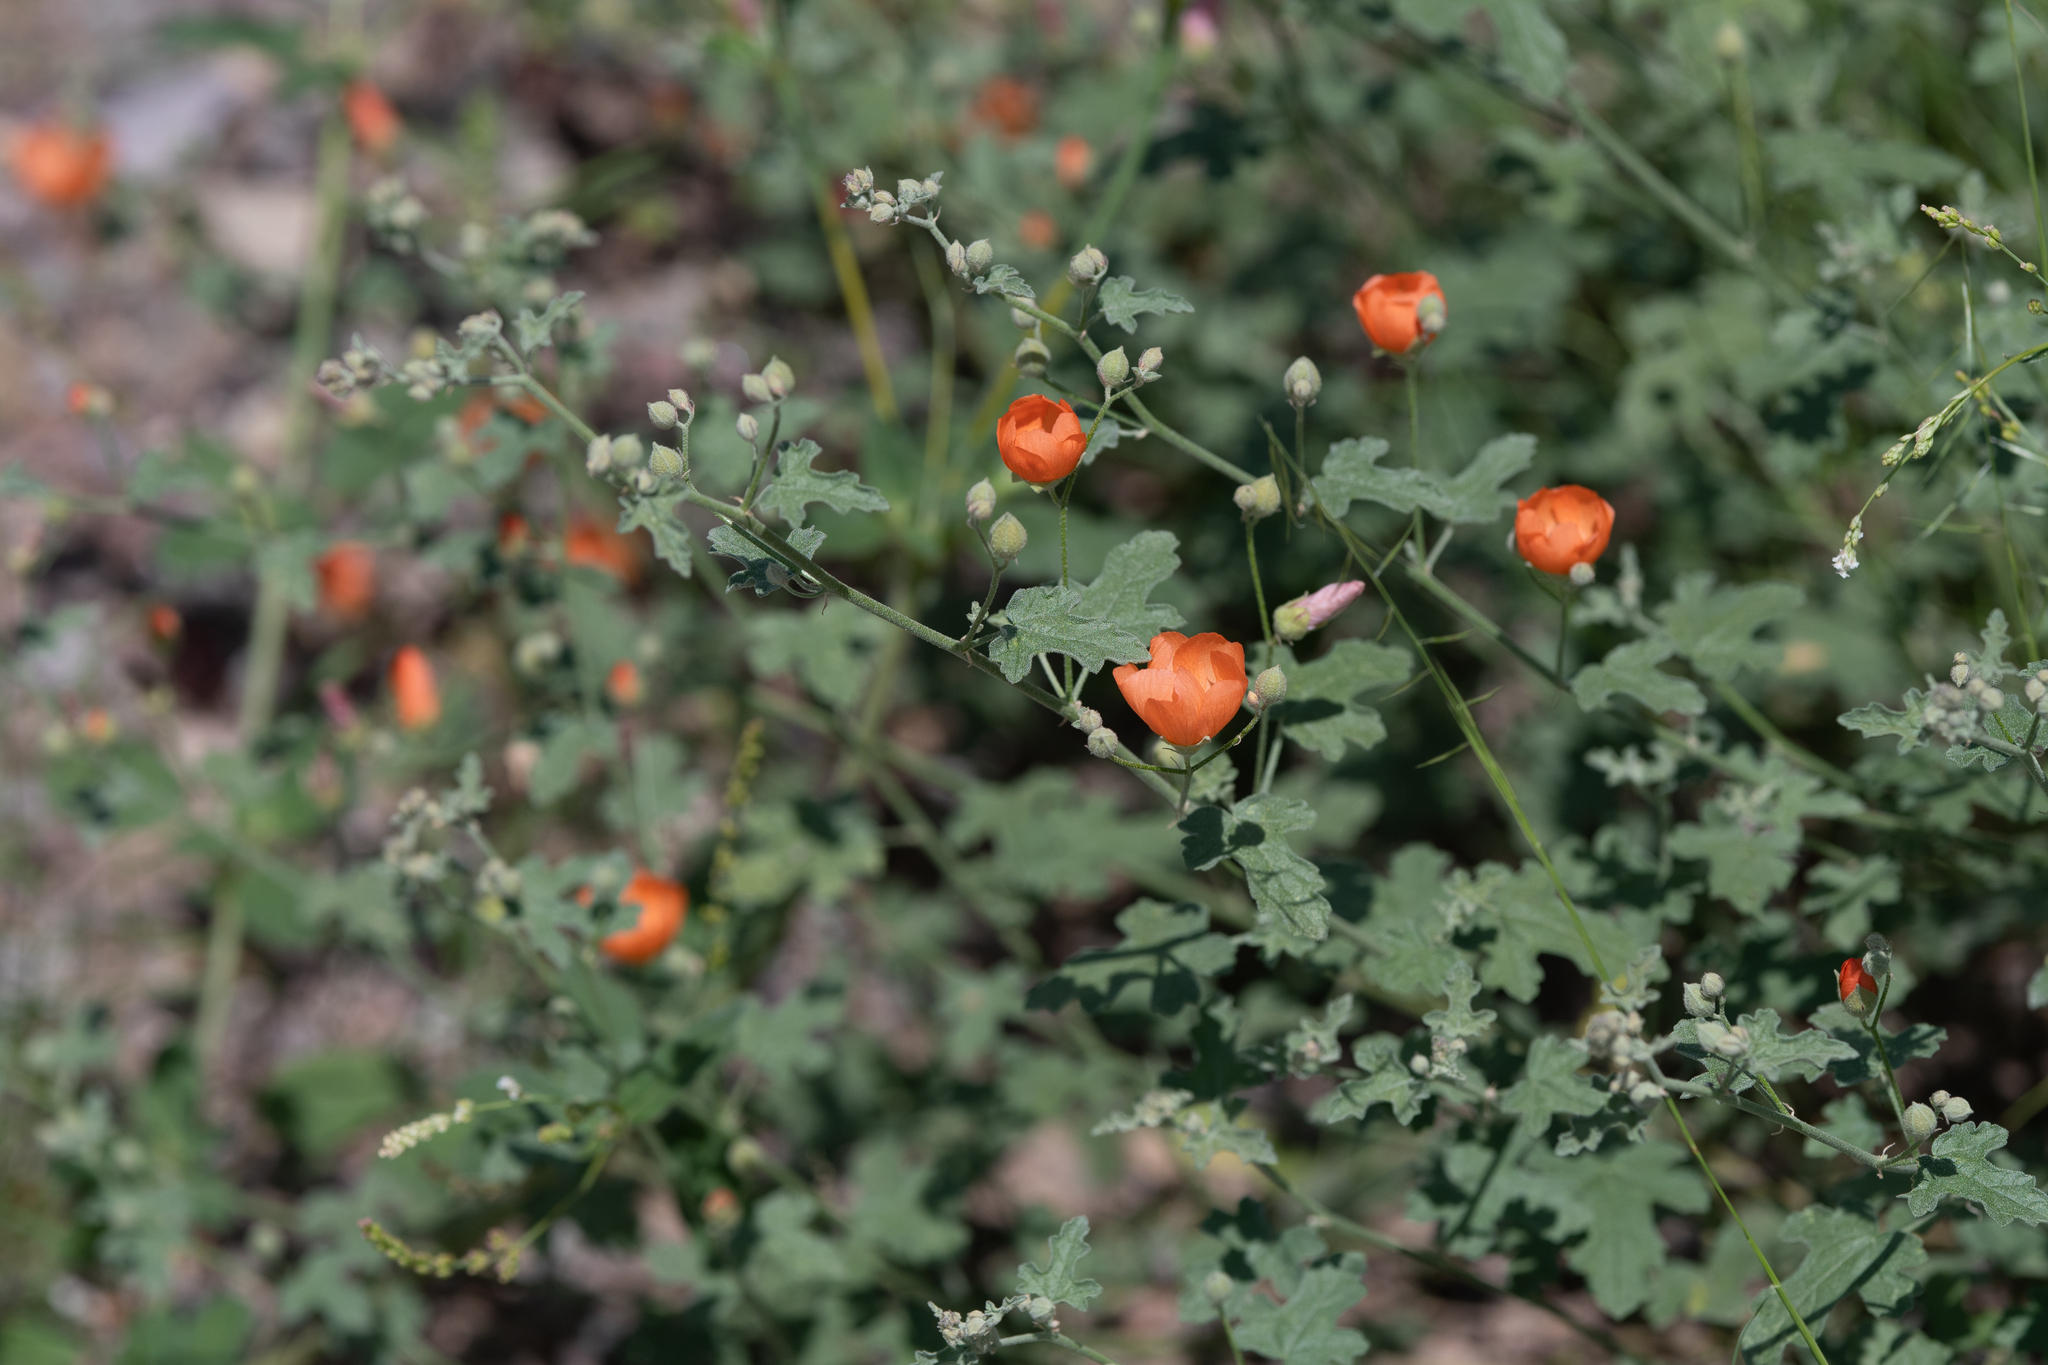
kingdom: Plantae
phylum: Tracheophyta
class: Magnoliopsida
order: Malvales
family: Malvaceae
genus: Sphaeralcea
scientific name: Sphaeralcea laxa
